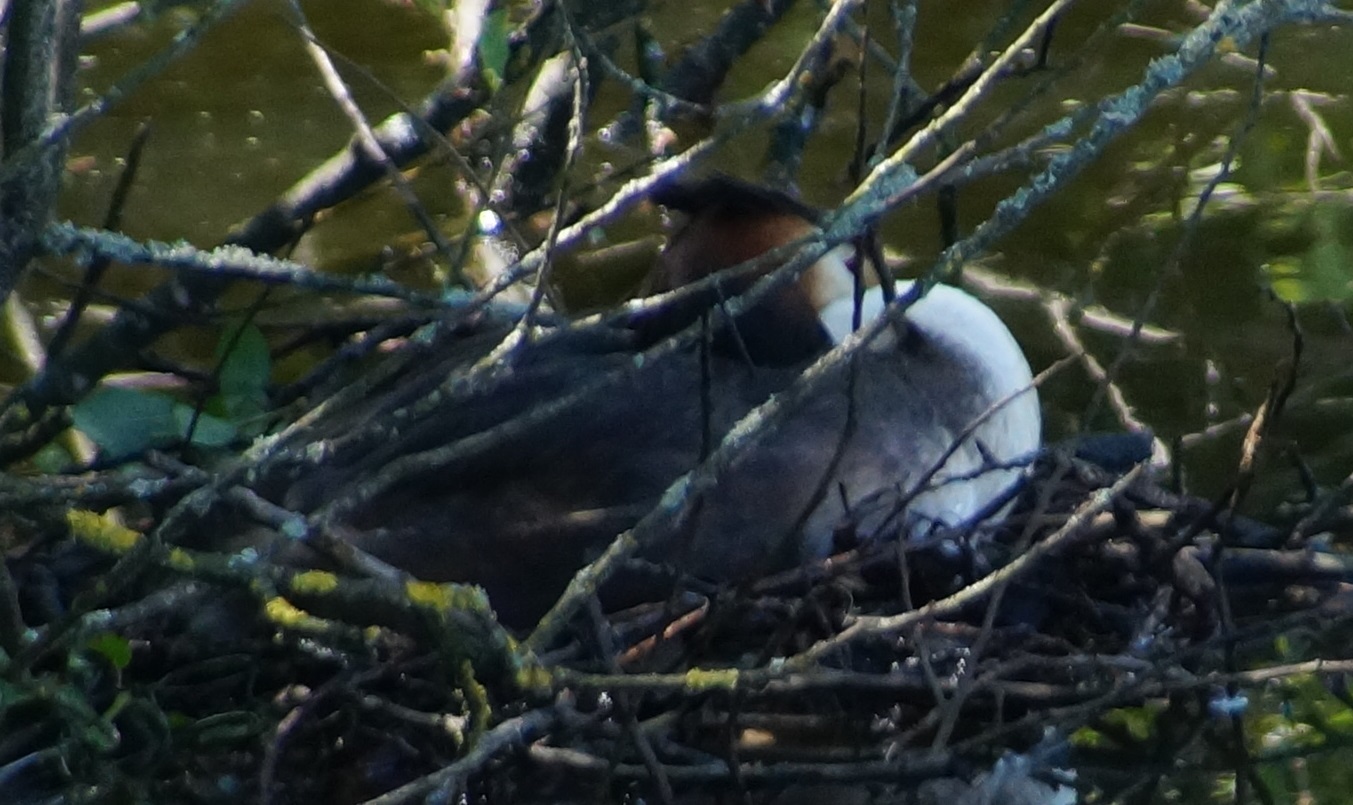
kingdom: Animalia
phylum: Chordata
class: Aves
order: Podicipediformes
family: Podicipedidae
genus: Podiceps
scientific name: Podiceps cristatus
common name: Great crested grebe
